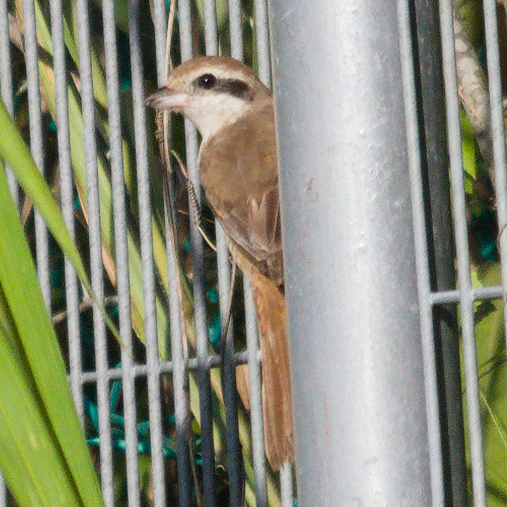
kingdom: Animalia
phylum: Chordata
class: Aves
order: Passeriformes
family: Laniidae
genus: Lanius
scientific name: Lanius cristatus
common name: Brown shrike
